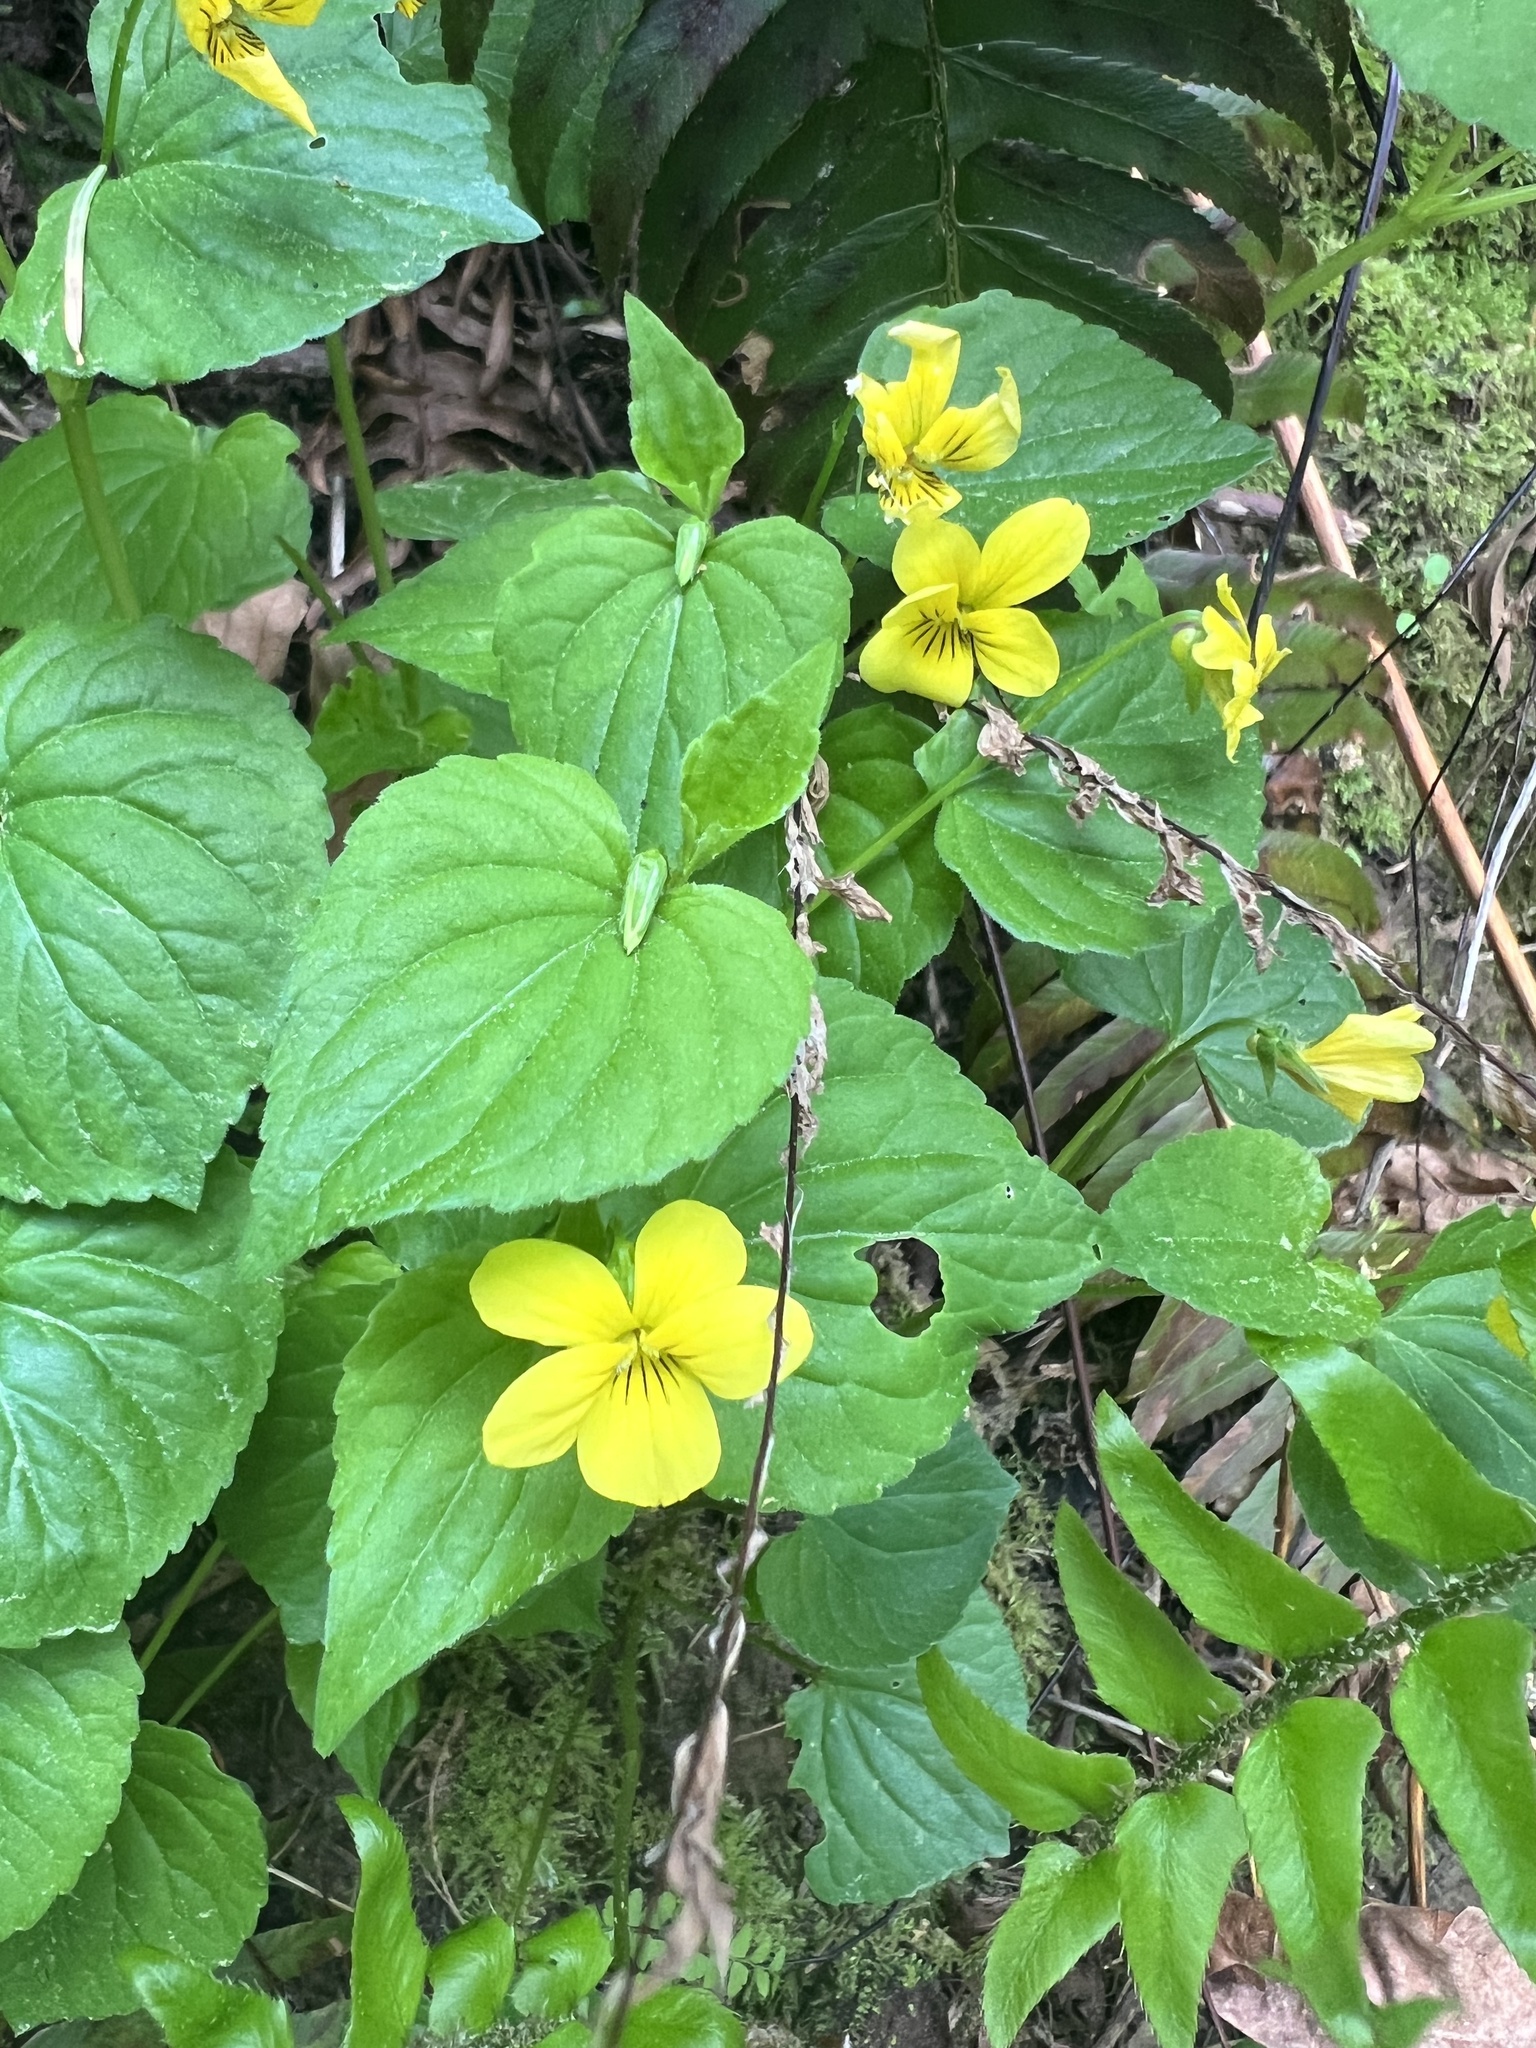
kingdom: Plantae
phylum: Tracheophyta
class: Magnoliopsida
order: Malpighiales
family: Violaceae
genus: Viola
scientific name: Viola glabella
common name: Stream violet
